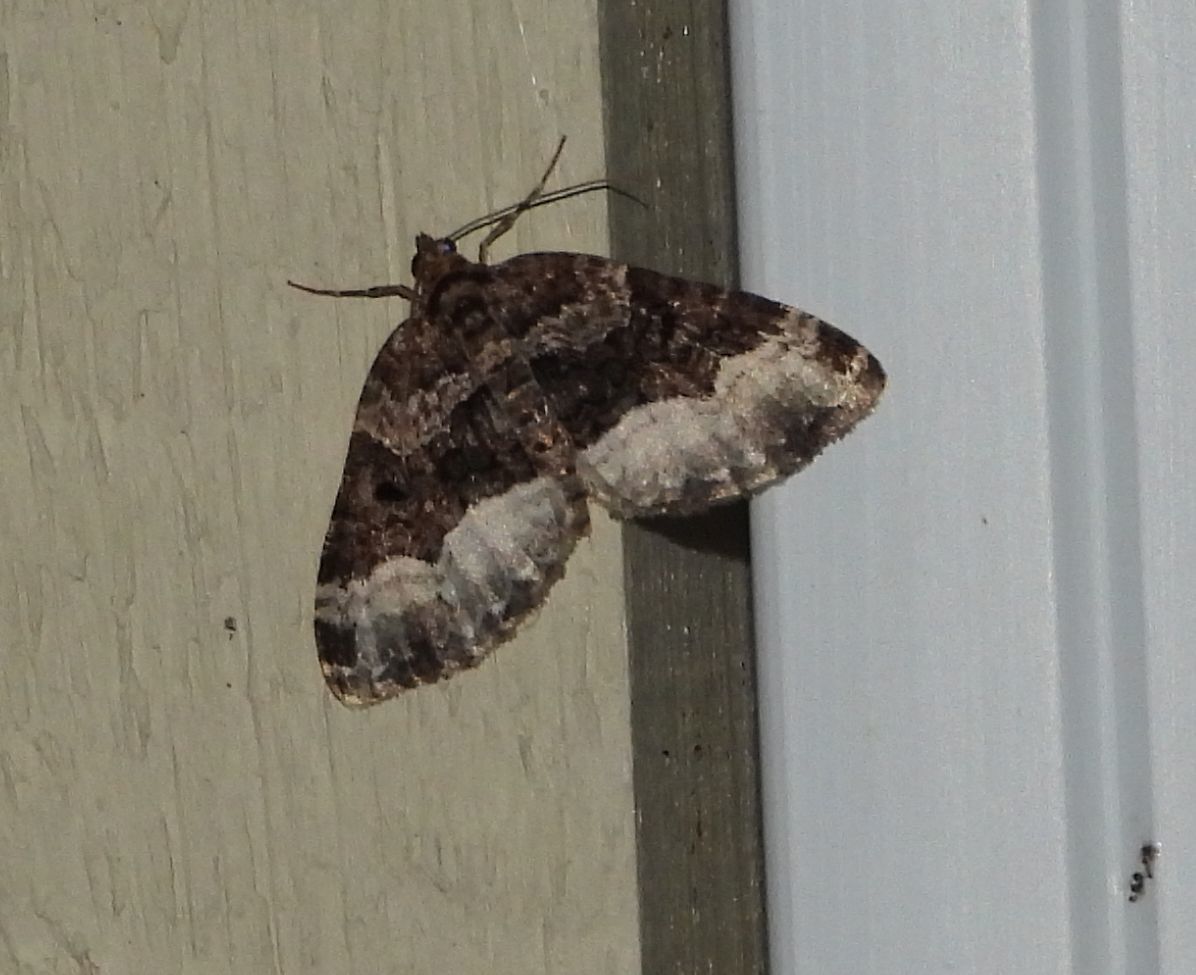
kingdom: Animalia
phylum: Arthropoda
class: Insecta
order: Lepidoptera
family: Geometridae
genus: Euphyia
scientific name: Euphyia intermediata
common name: Sharp-angled carpet
